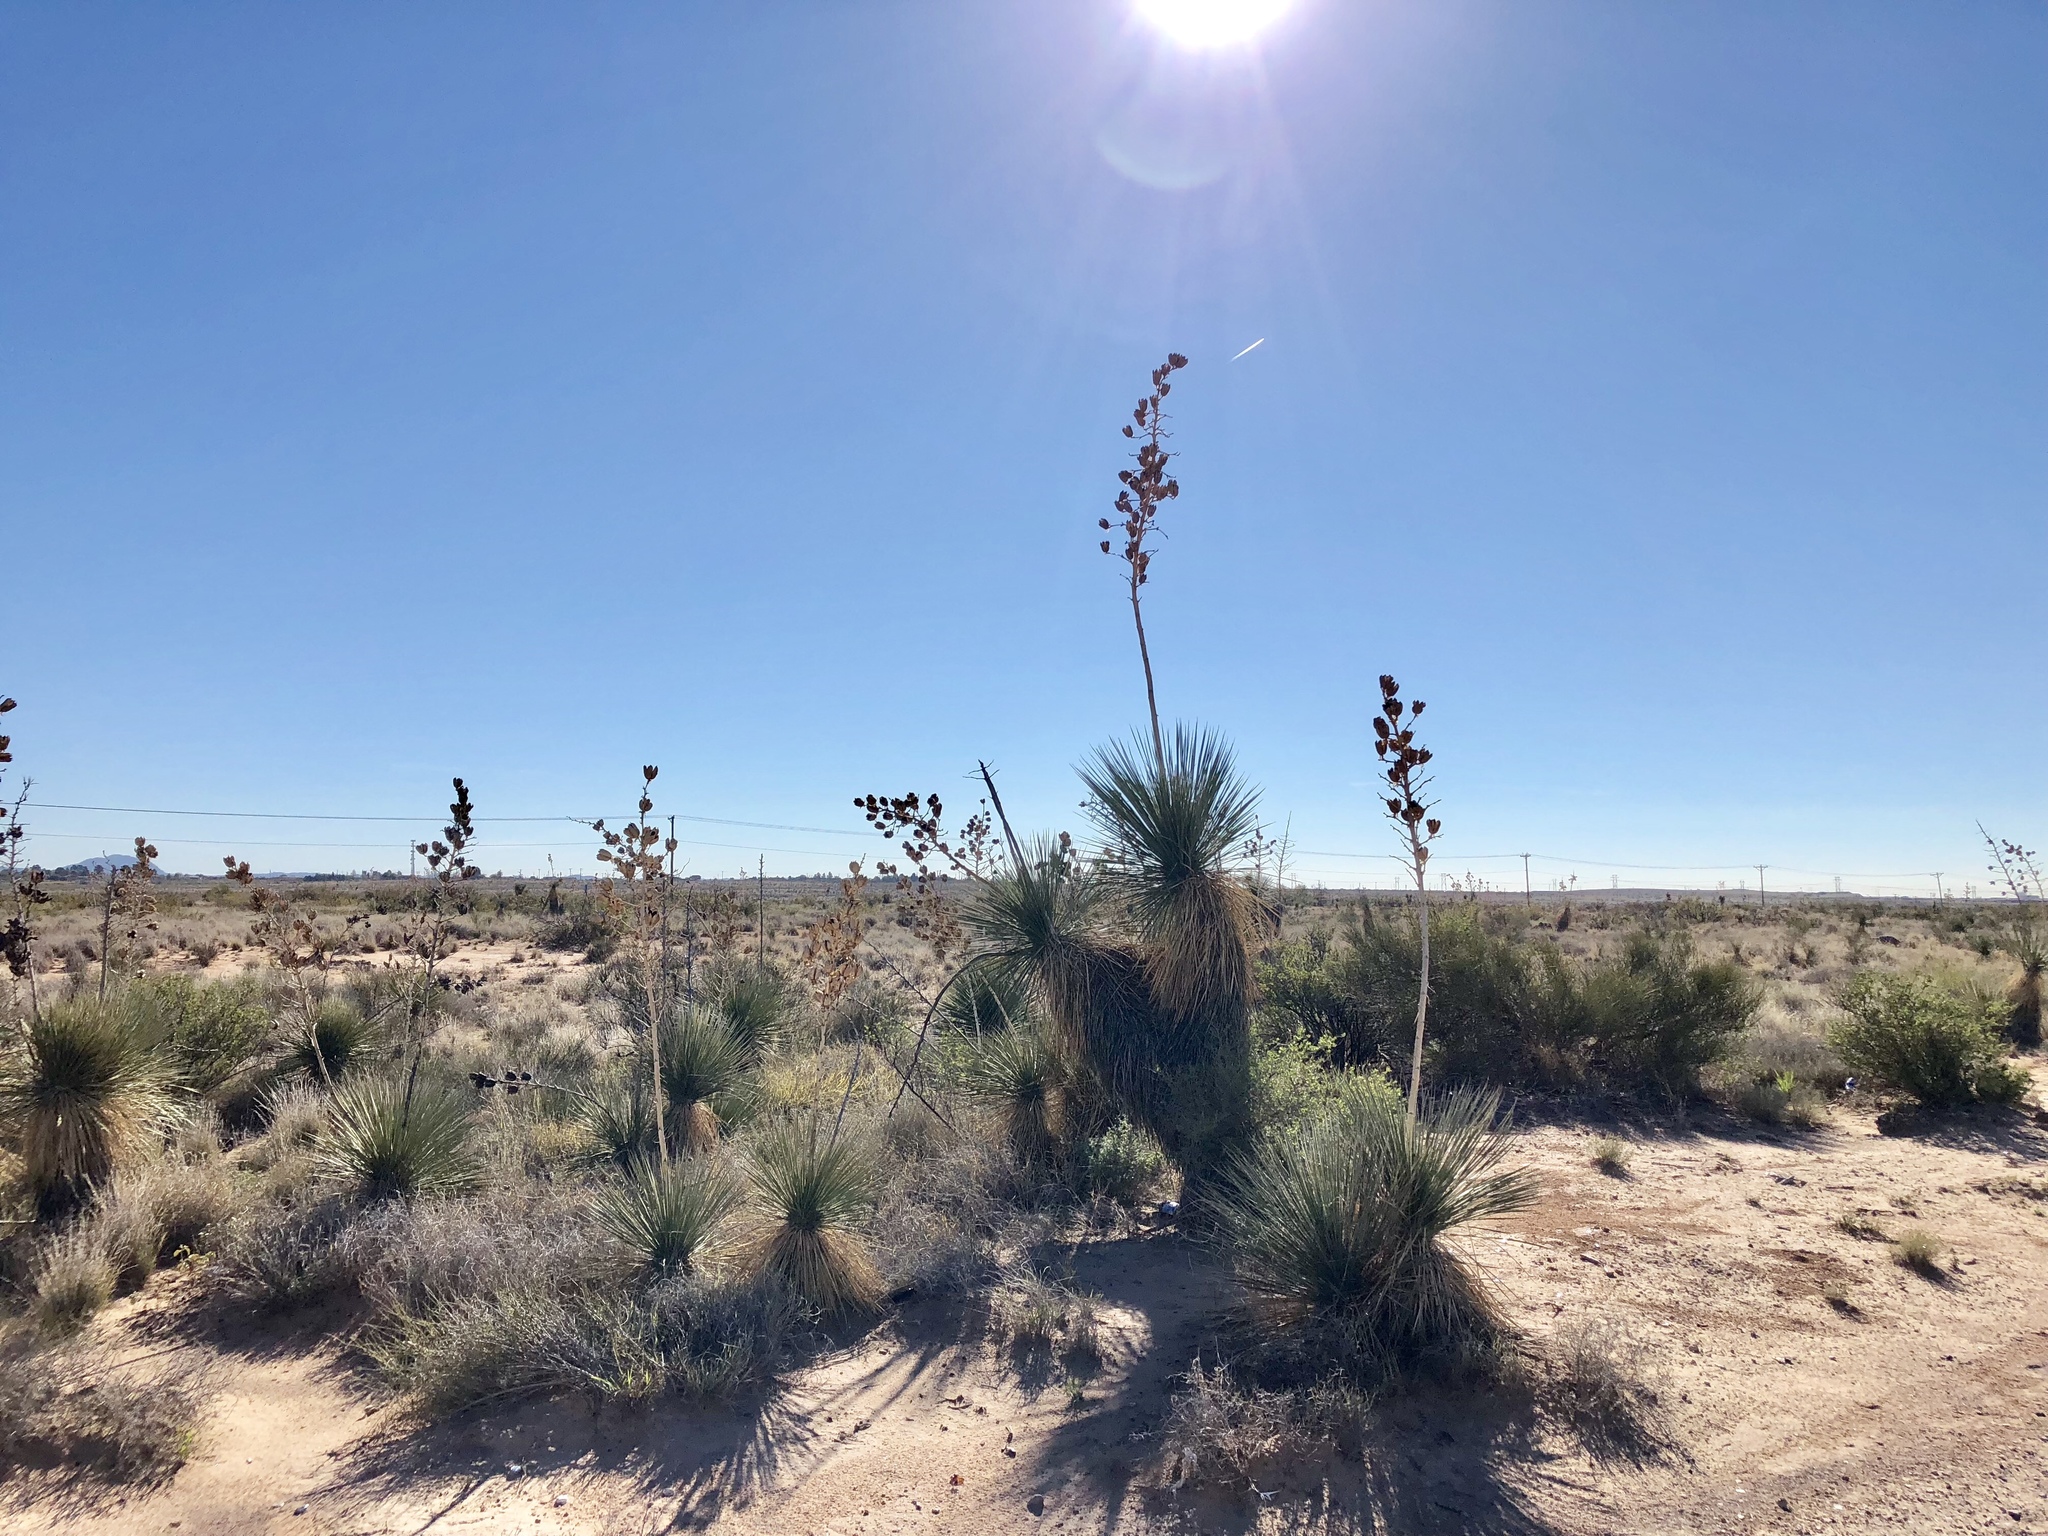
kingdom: Plantae
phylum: Tracheophyta
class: Liliopsida
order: Asparagales
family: Asparagaceae
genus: Yucca
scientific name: Yucca elata
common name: Palmella
